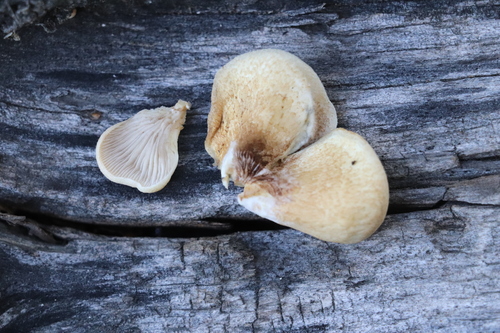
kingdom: Fungi
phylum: Basidiomycota
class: Agaricomycetes
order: Agaricales
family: Crepidotaceae
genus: Crepidotus
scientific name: Crepidotus
